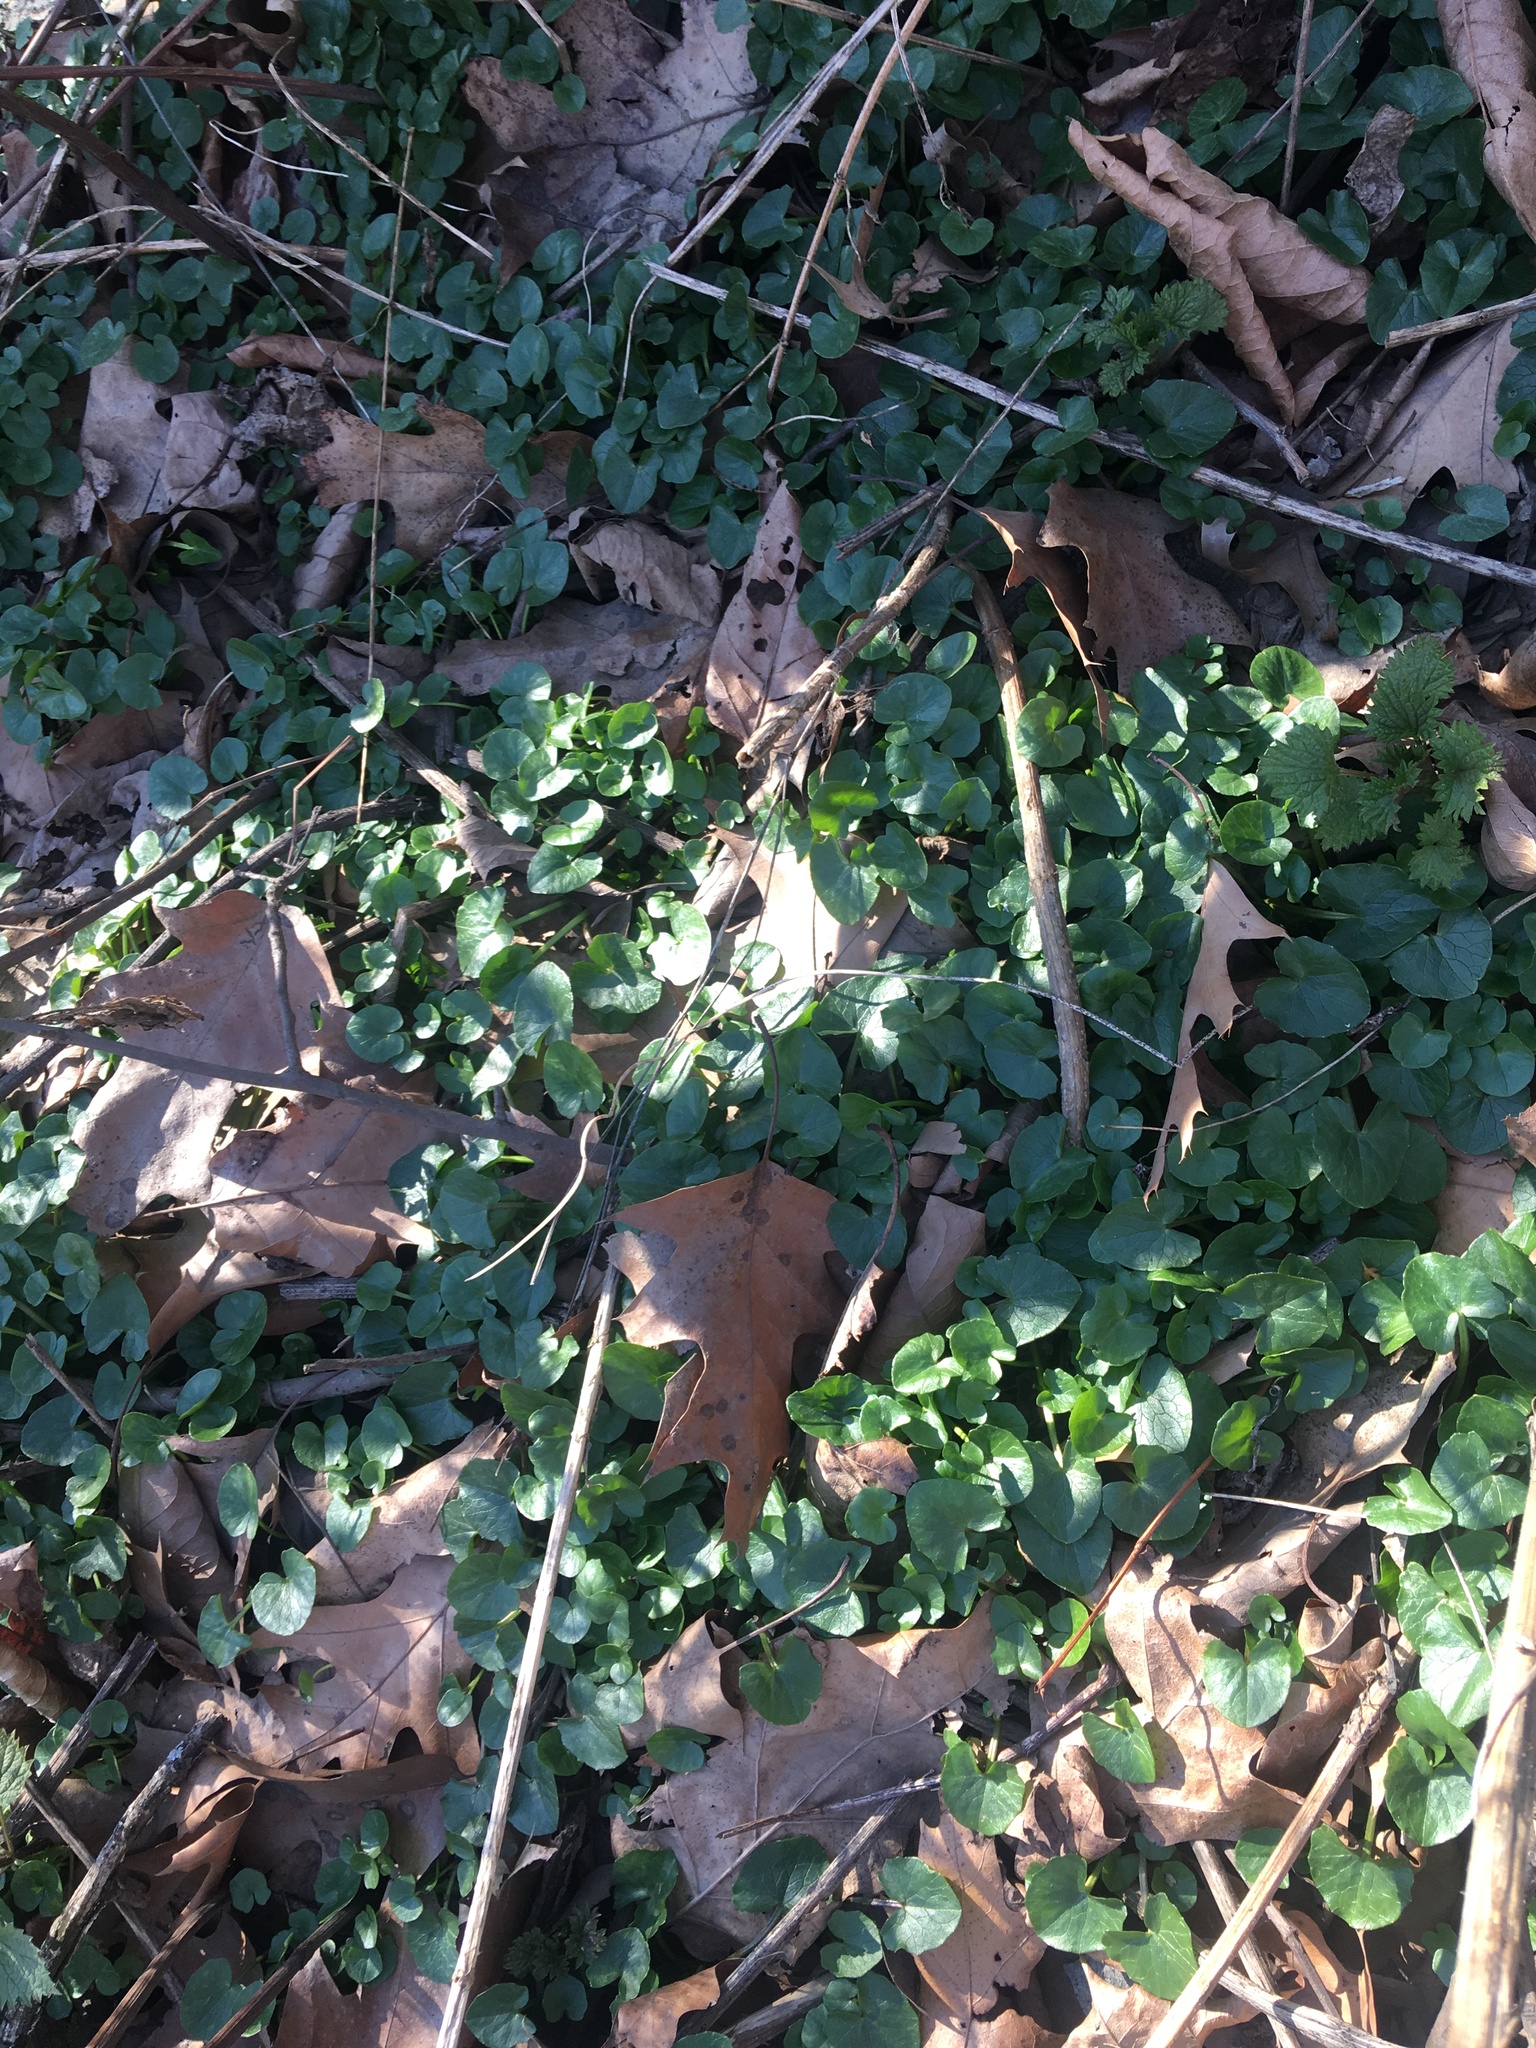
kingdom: Plantae
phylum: Tracheophyta
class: Magnoliopsida
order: Ranunculales
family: Ranunculaceae
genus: Ficaria
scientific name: Ficaria verna
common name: Lesser celandine
